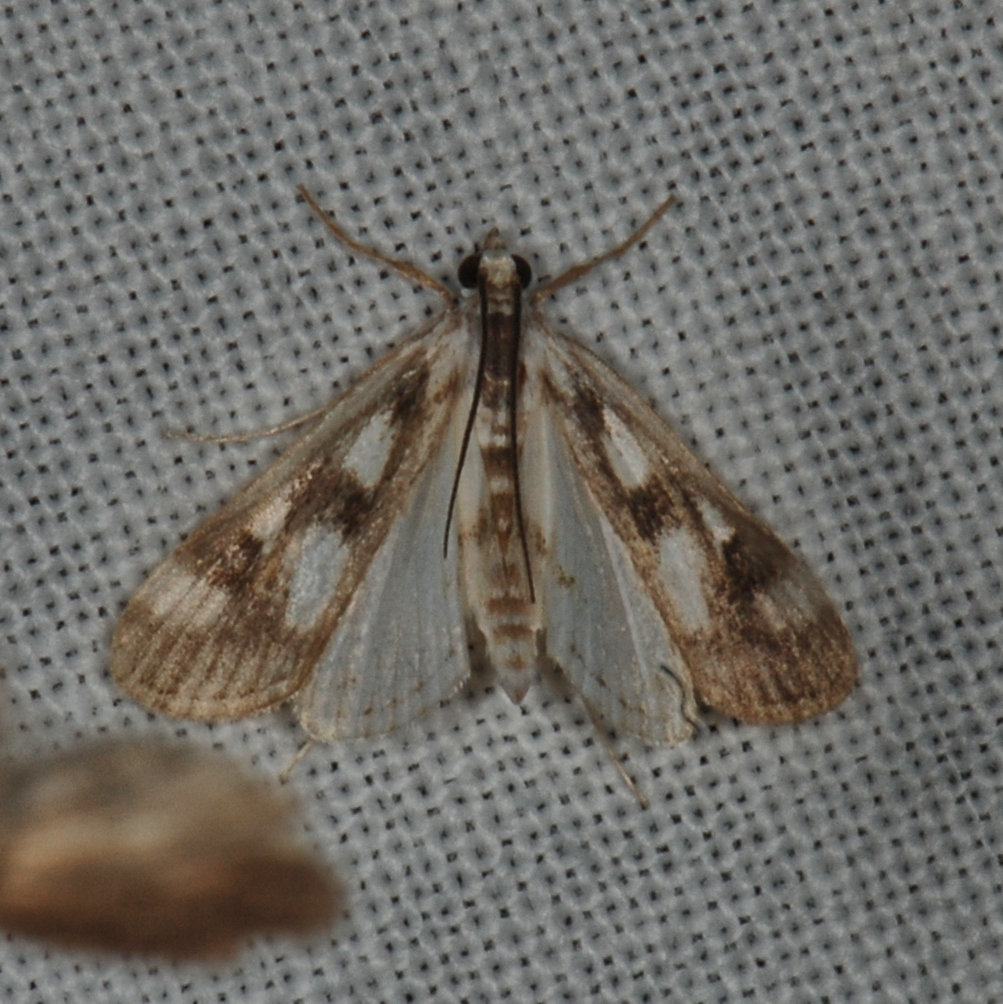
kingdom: Animalia
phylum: Arthropoda
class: Insecta
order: Lepidoptera
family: Crambidae
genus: Parapoynx
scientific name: Parapoynx maculalis
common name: Polymorphic pondweed moth
